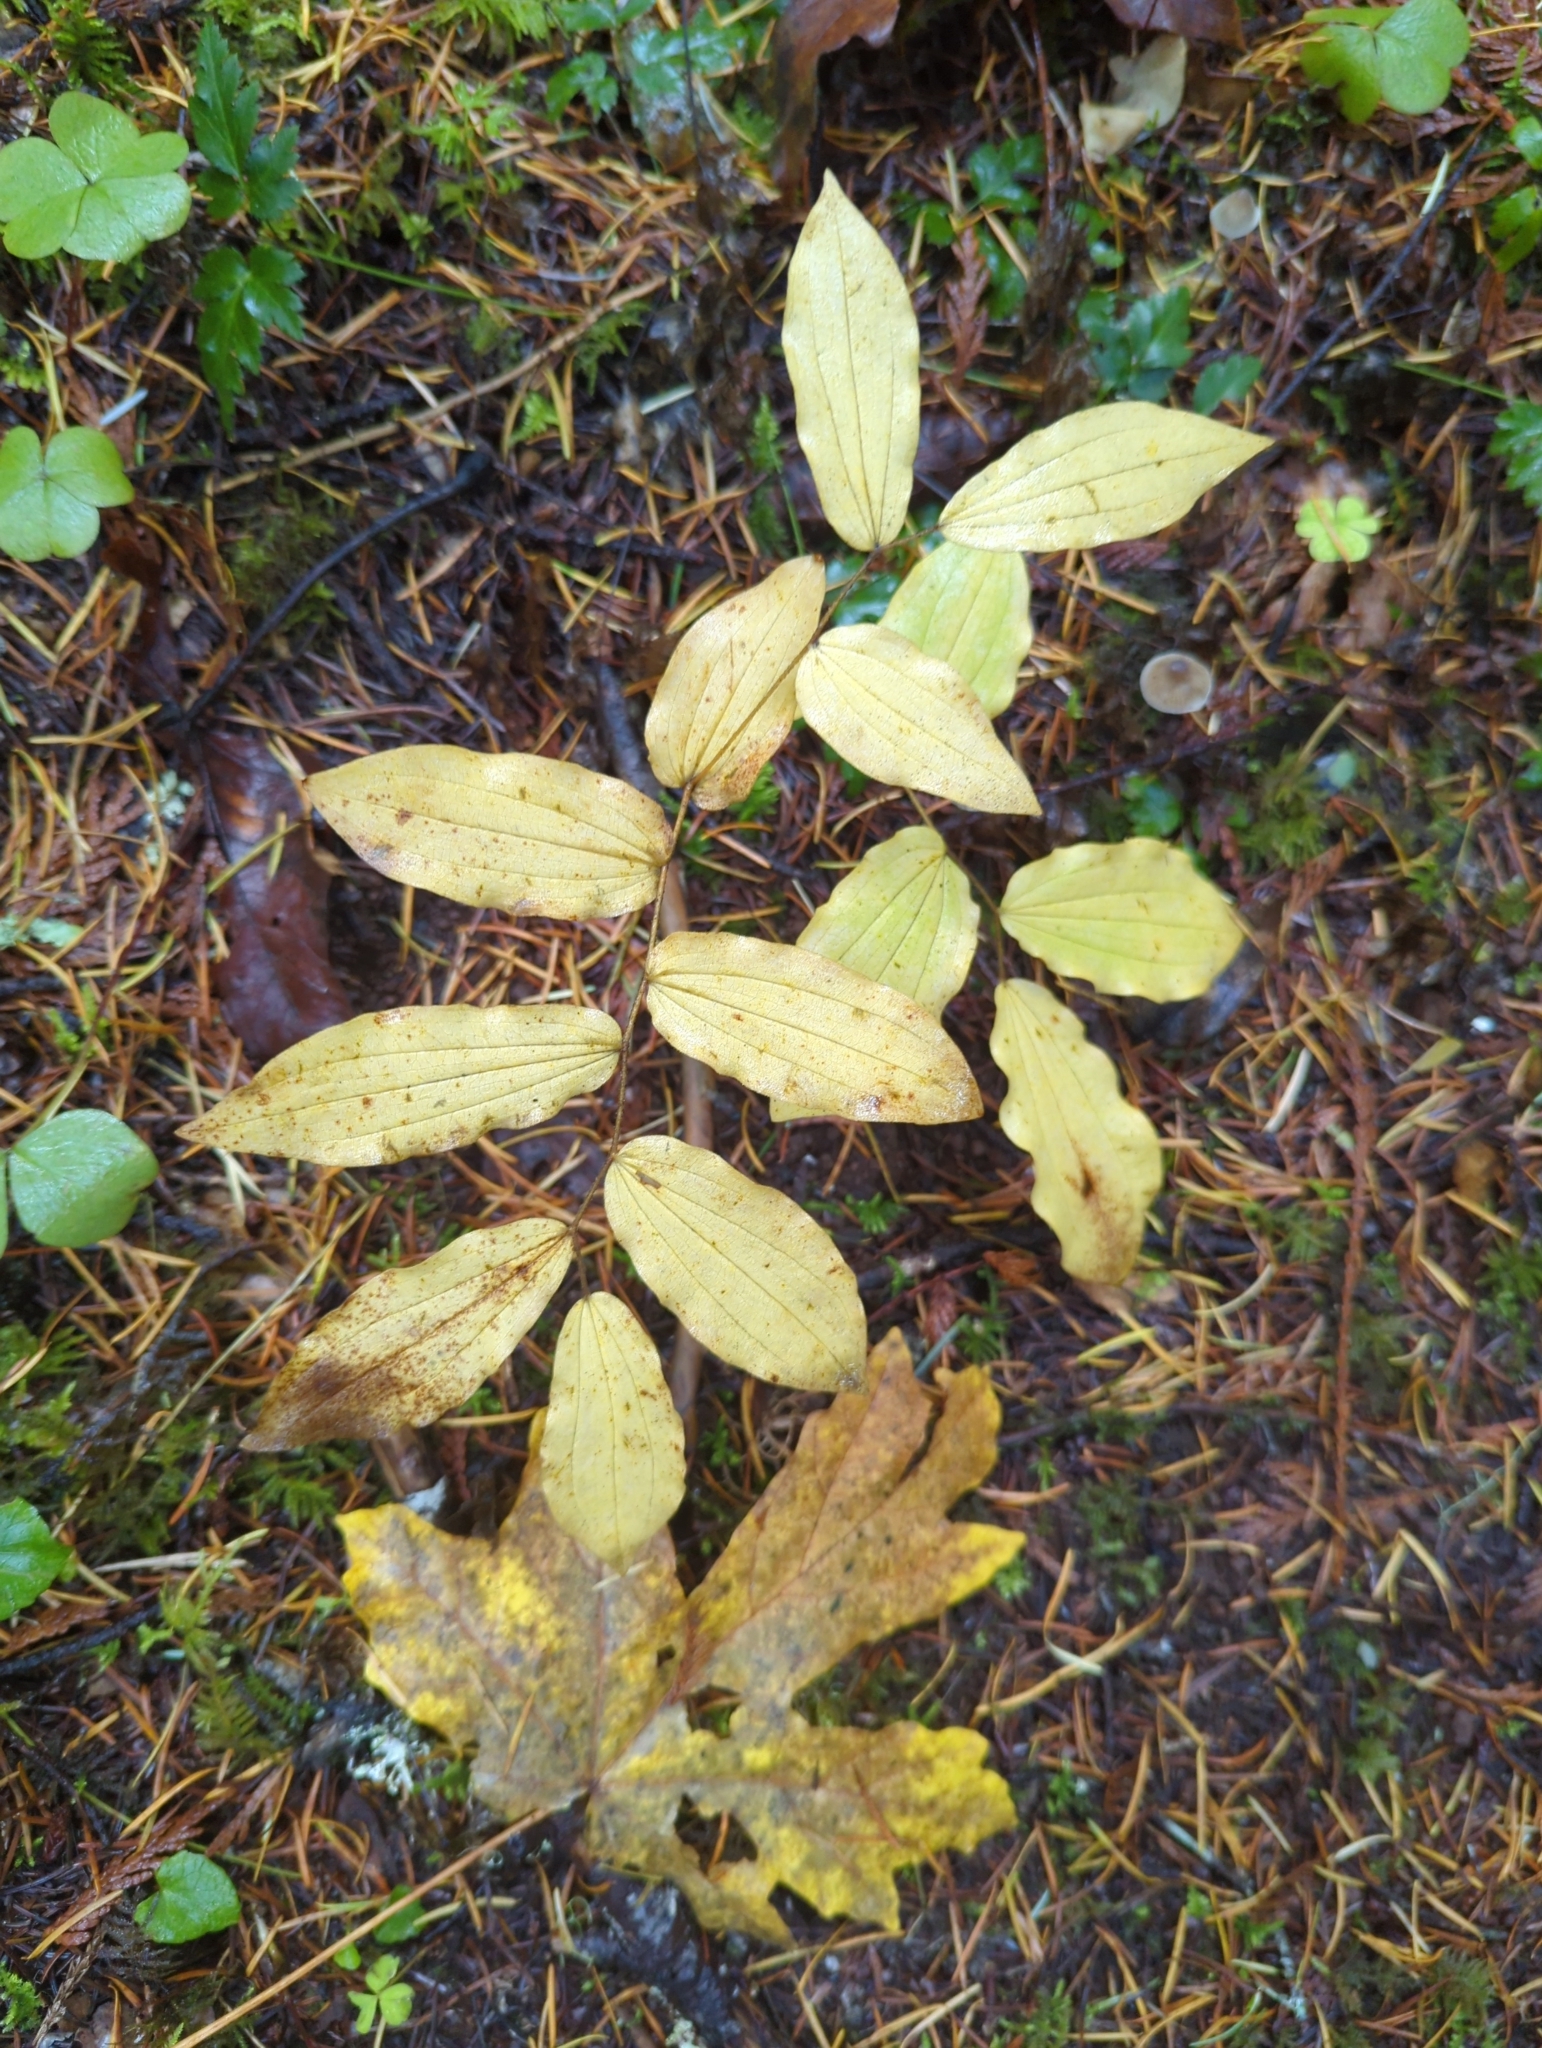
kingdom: Plantae
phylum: Tracheophyta
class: Liliopsida
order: Liliales
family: Liliaceae
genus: Prosartes
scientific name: Prosartes hookeri
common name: Fairy-bells
